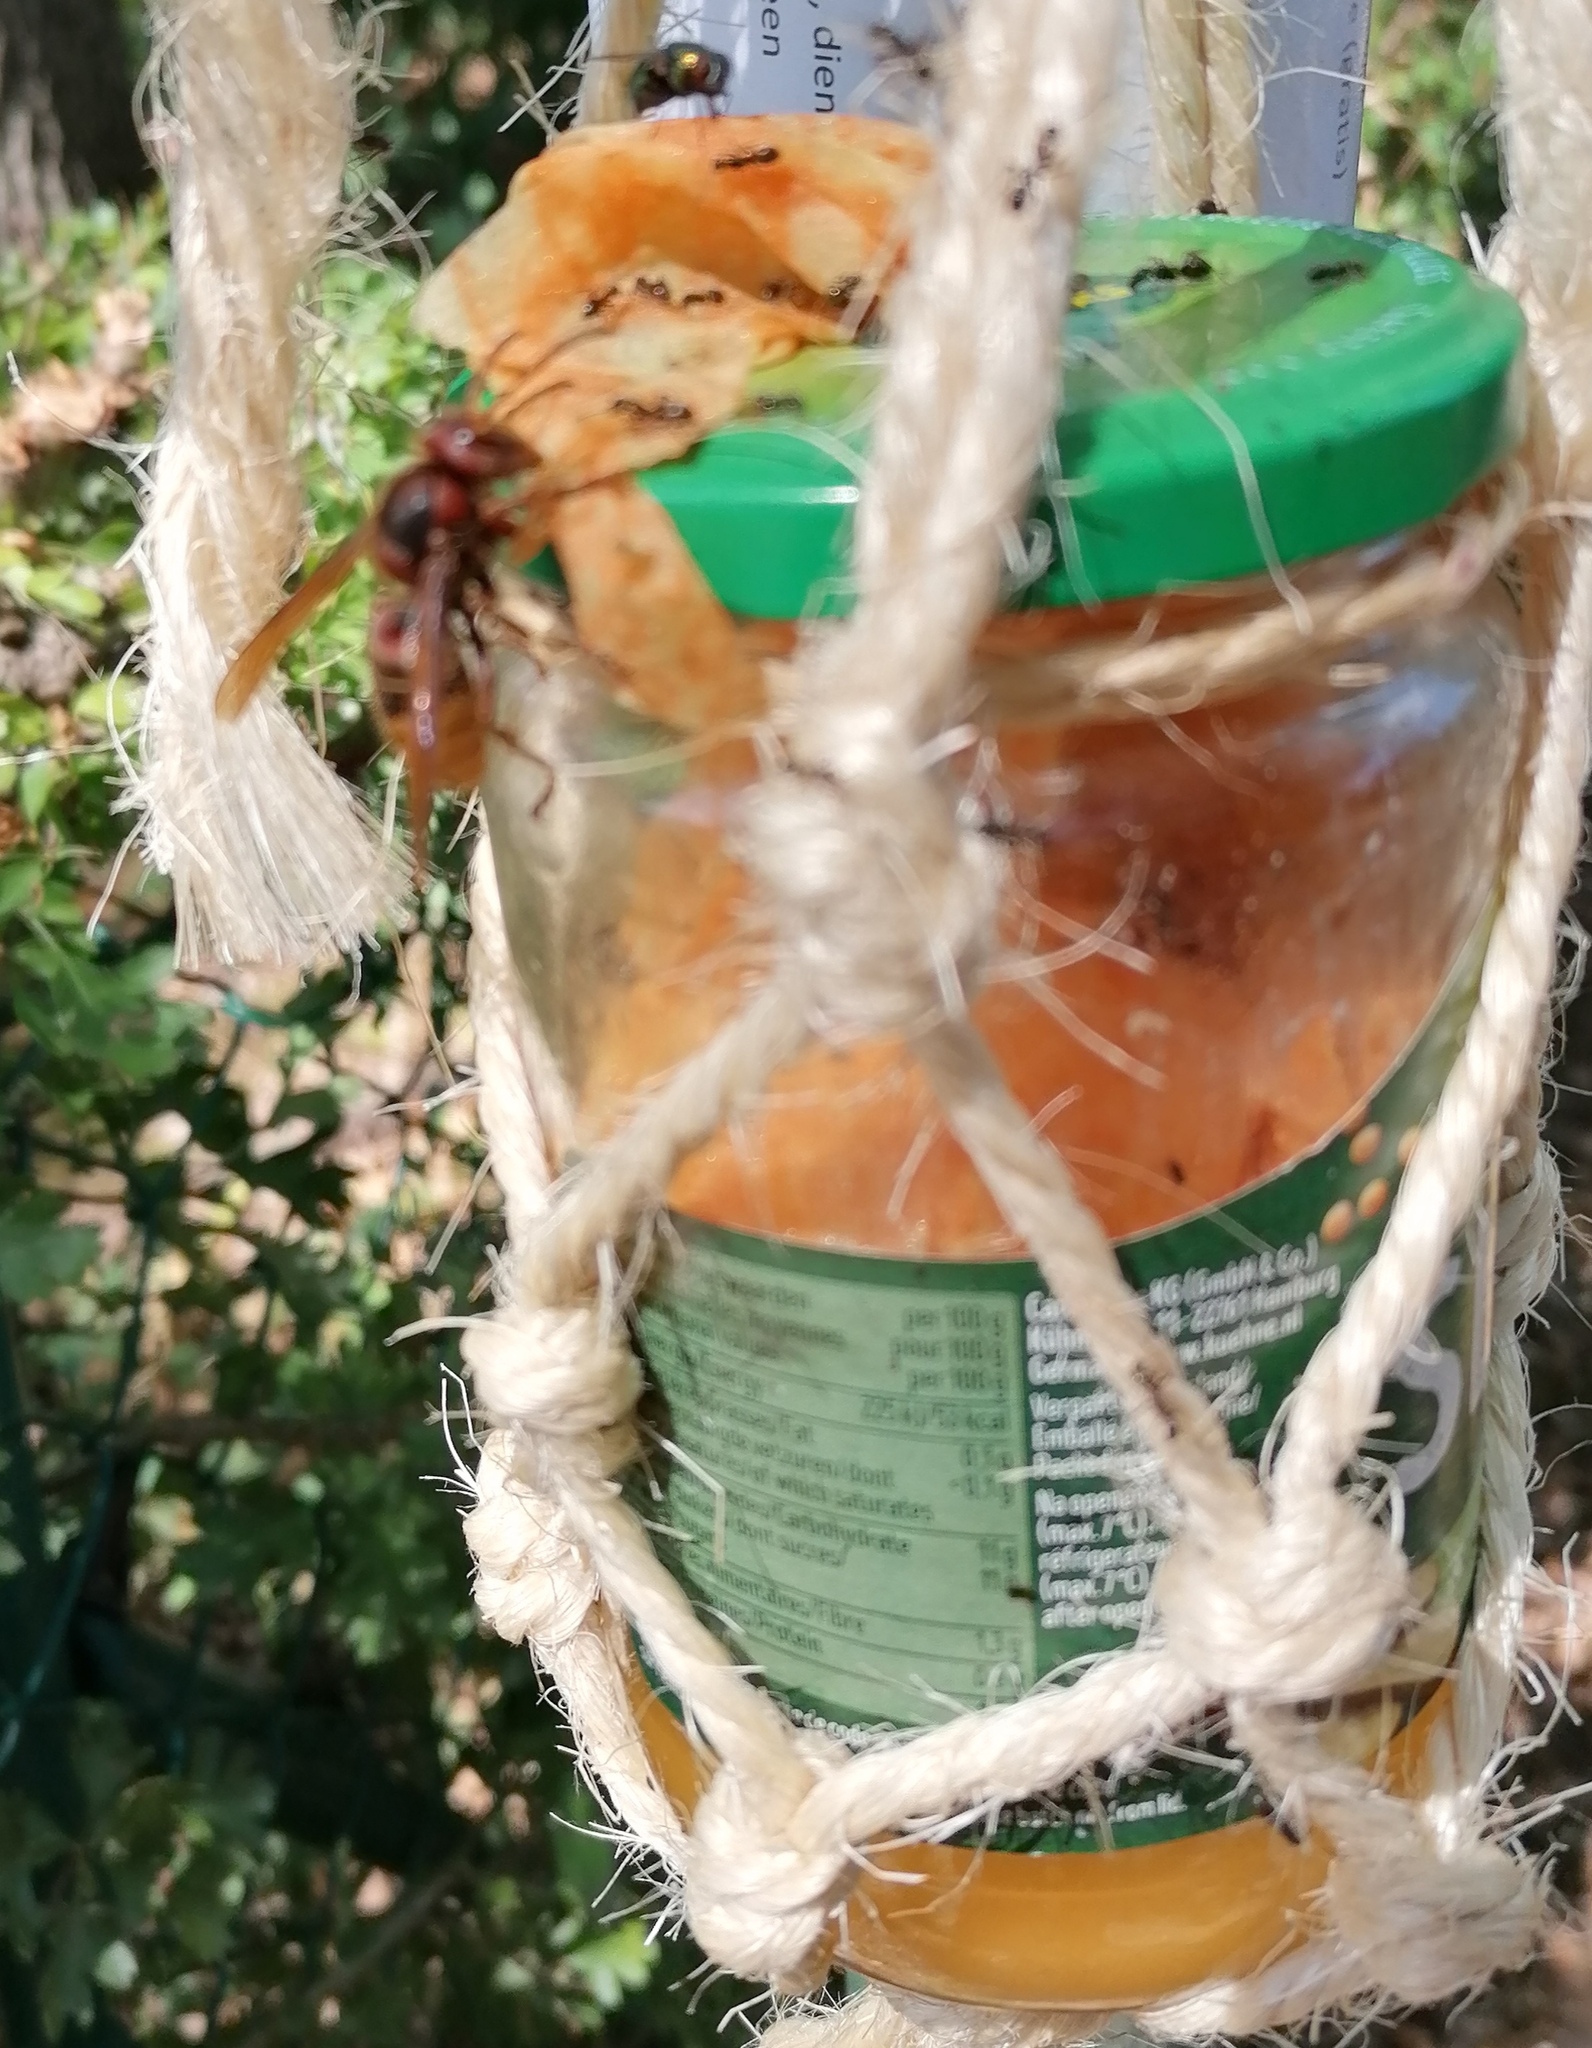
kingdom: Animalia
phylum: Arthropoda
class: Insecta
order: Hymenoptera
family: Vespidae
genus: Vespa
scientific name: Vespa crabro
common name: Hornet
